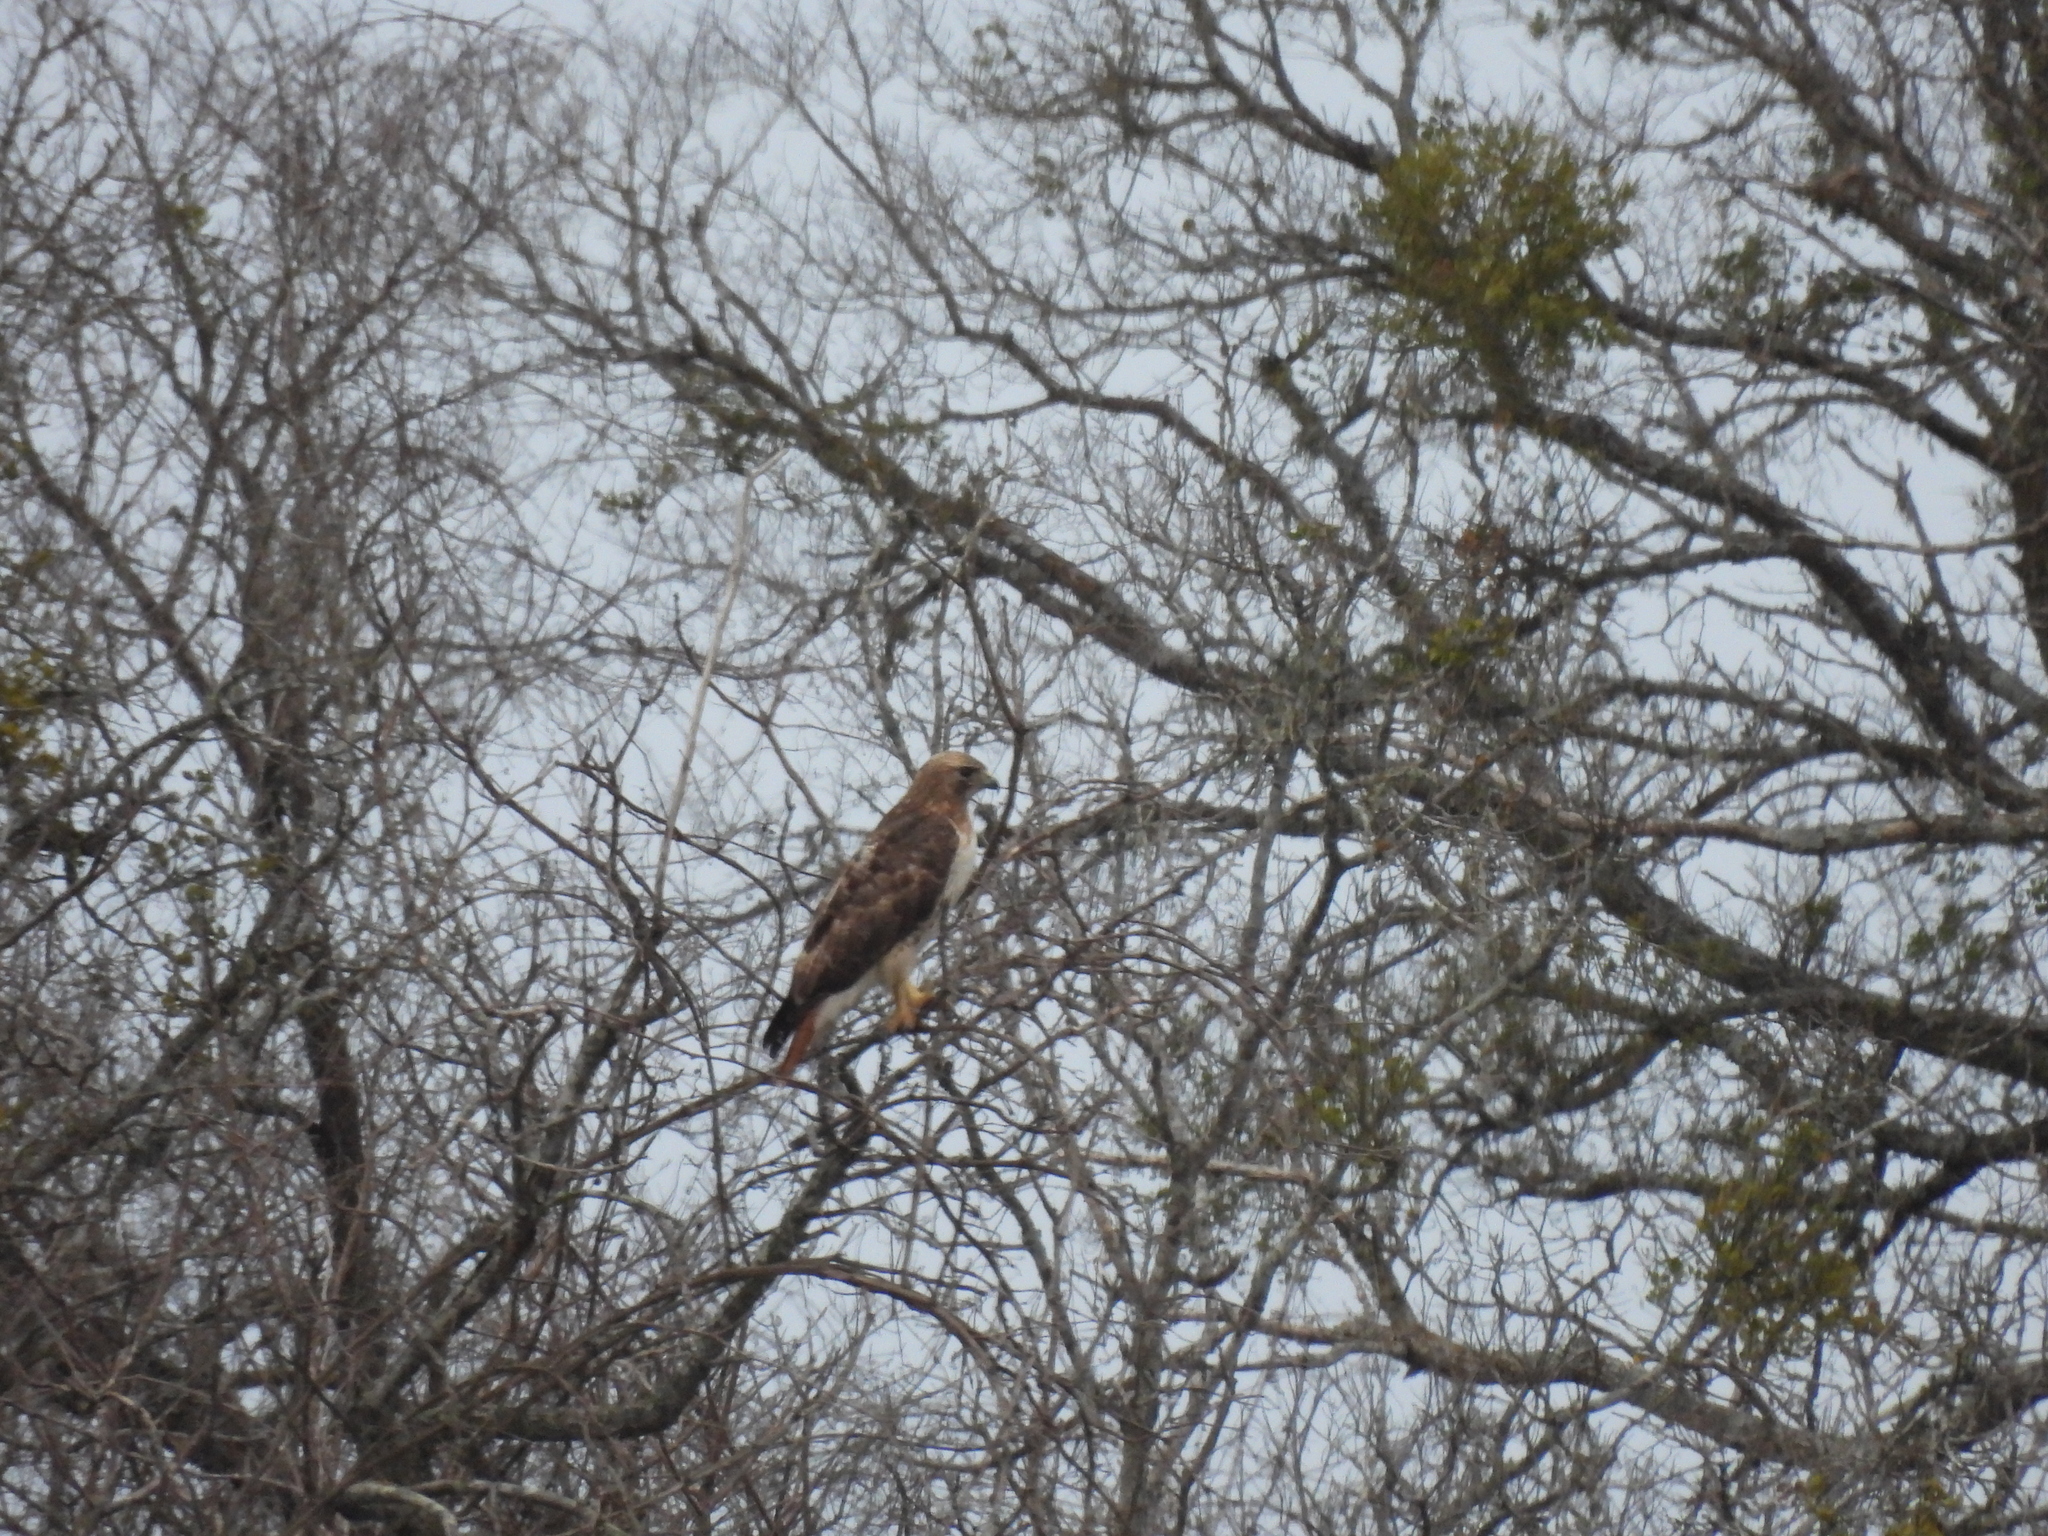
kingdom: Animalia
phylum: Chordata
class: Aves
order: Accipitriformes
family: Accipitridae
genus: Buteo
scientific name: Buteo jamaicensis
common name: Red-tailed hawk
